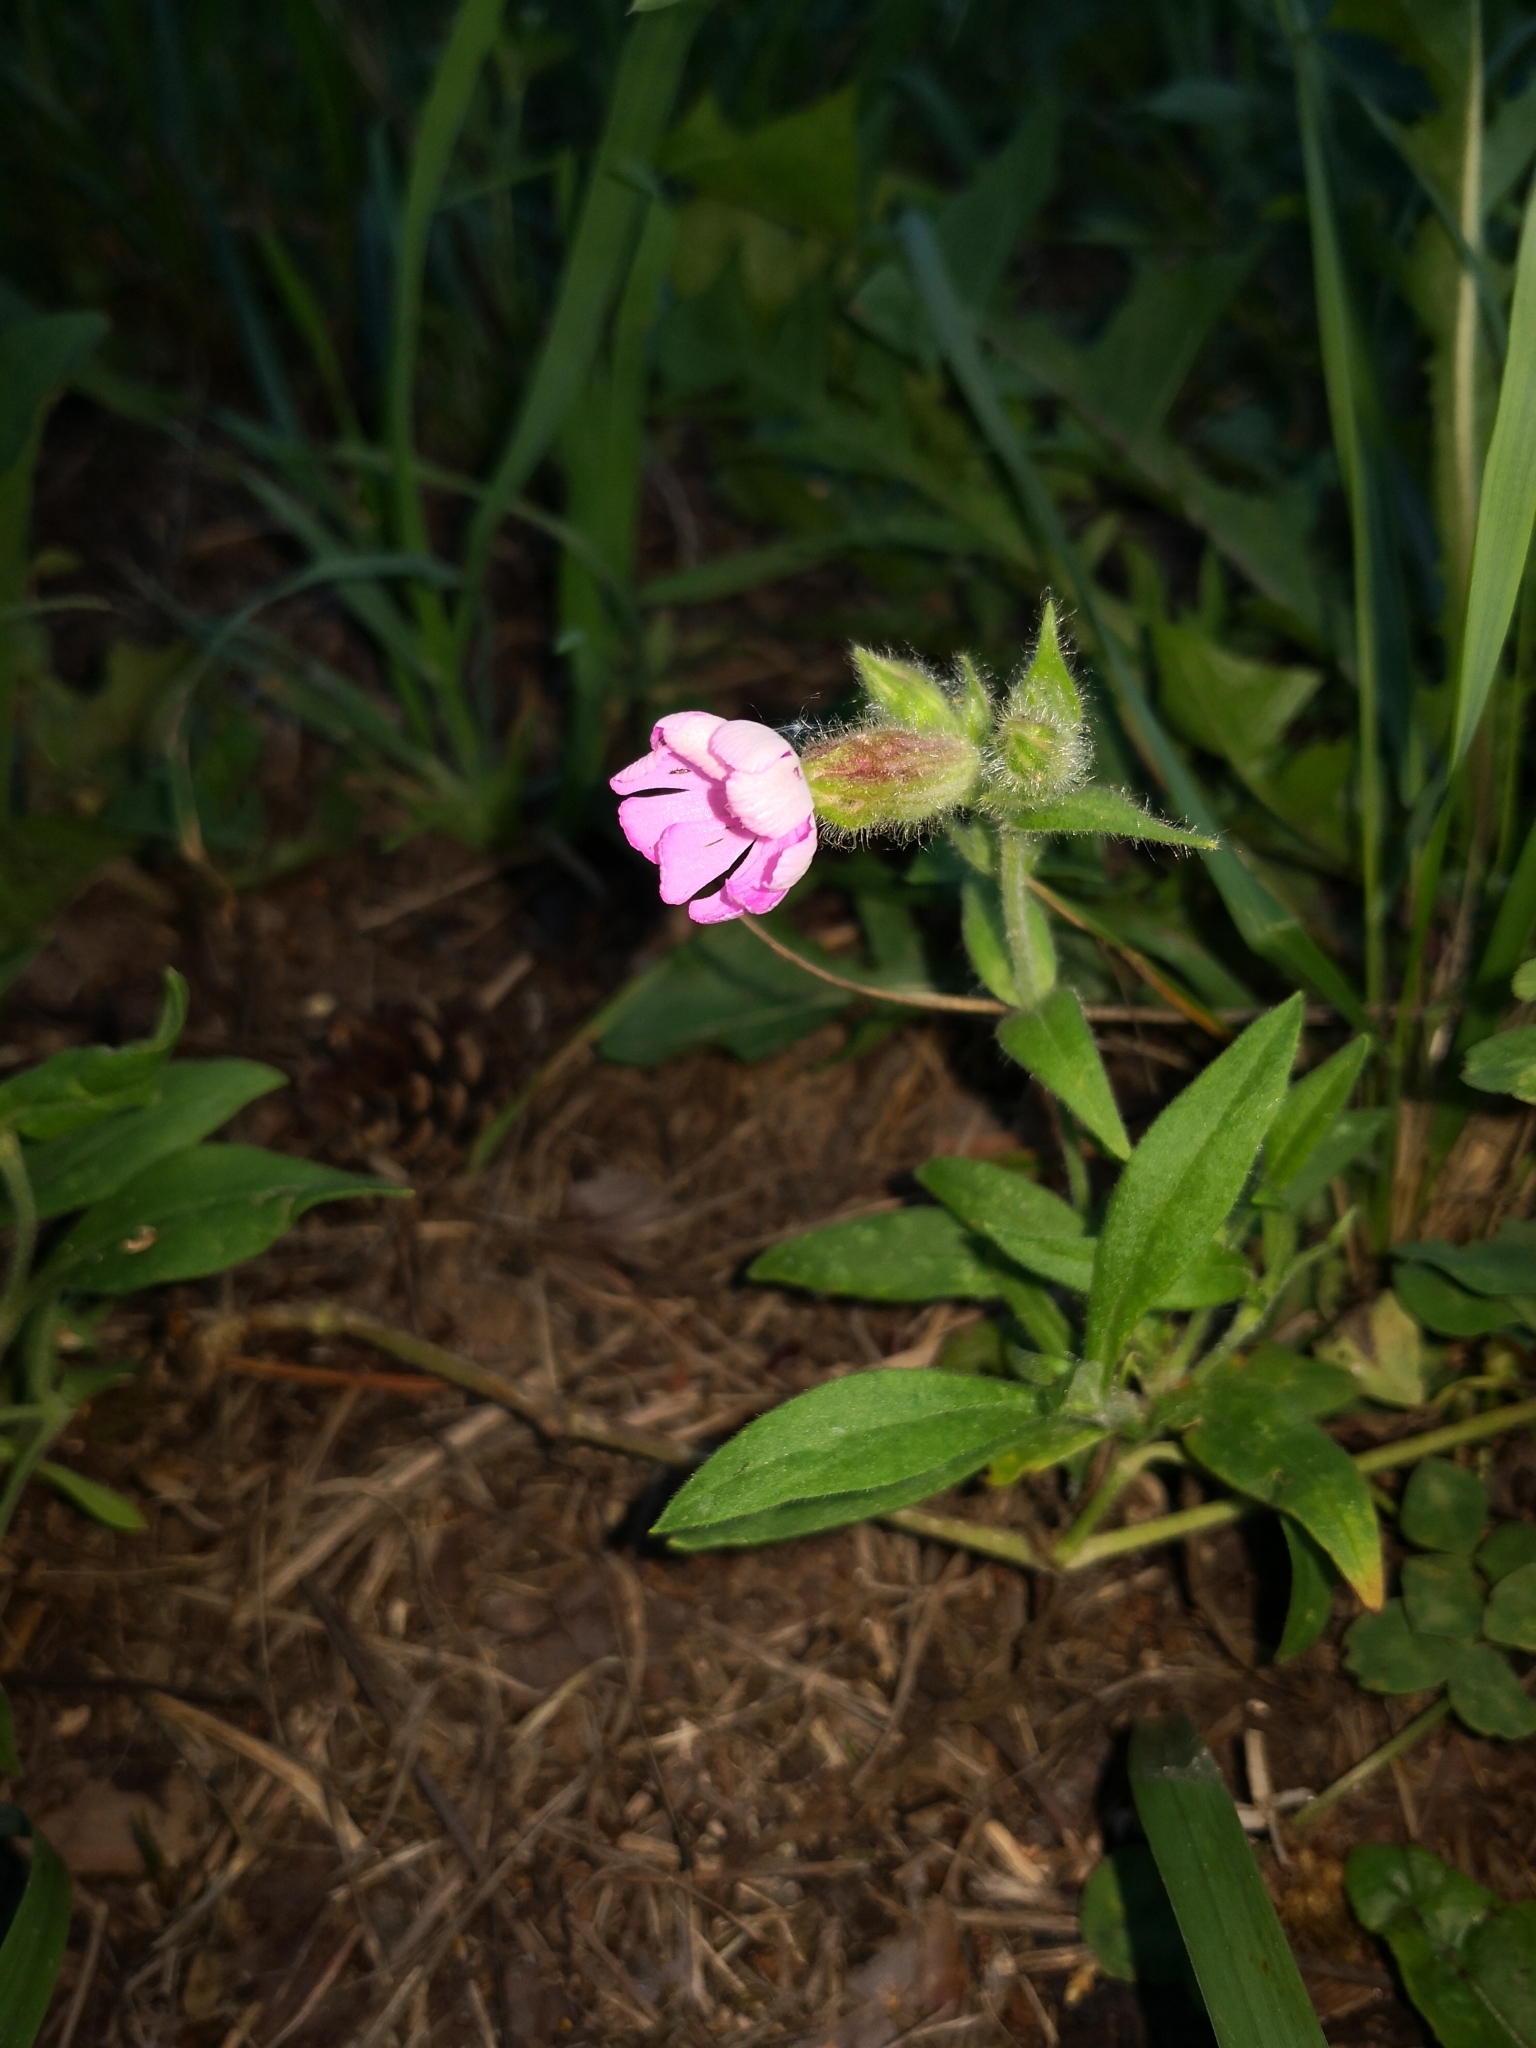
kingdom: Plantae
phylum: Tracheophyta
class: Magnoliopsida
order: Caryophyllales
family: Caryophyllaceae
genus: Silene
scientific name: Silene dioica
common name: Red campion
